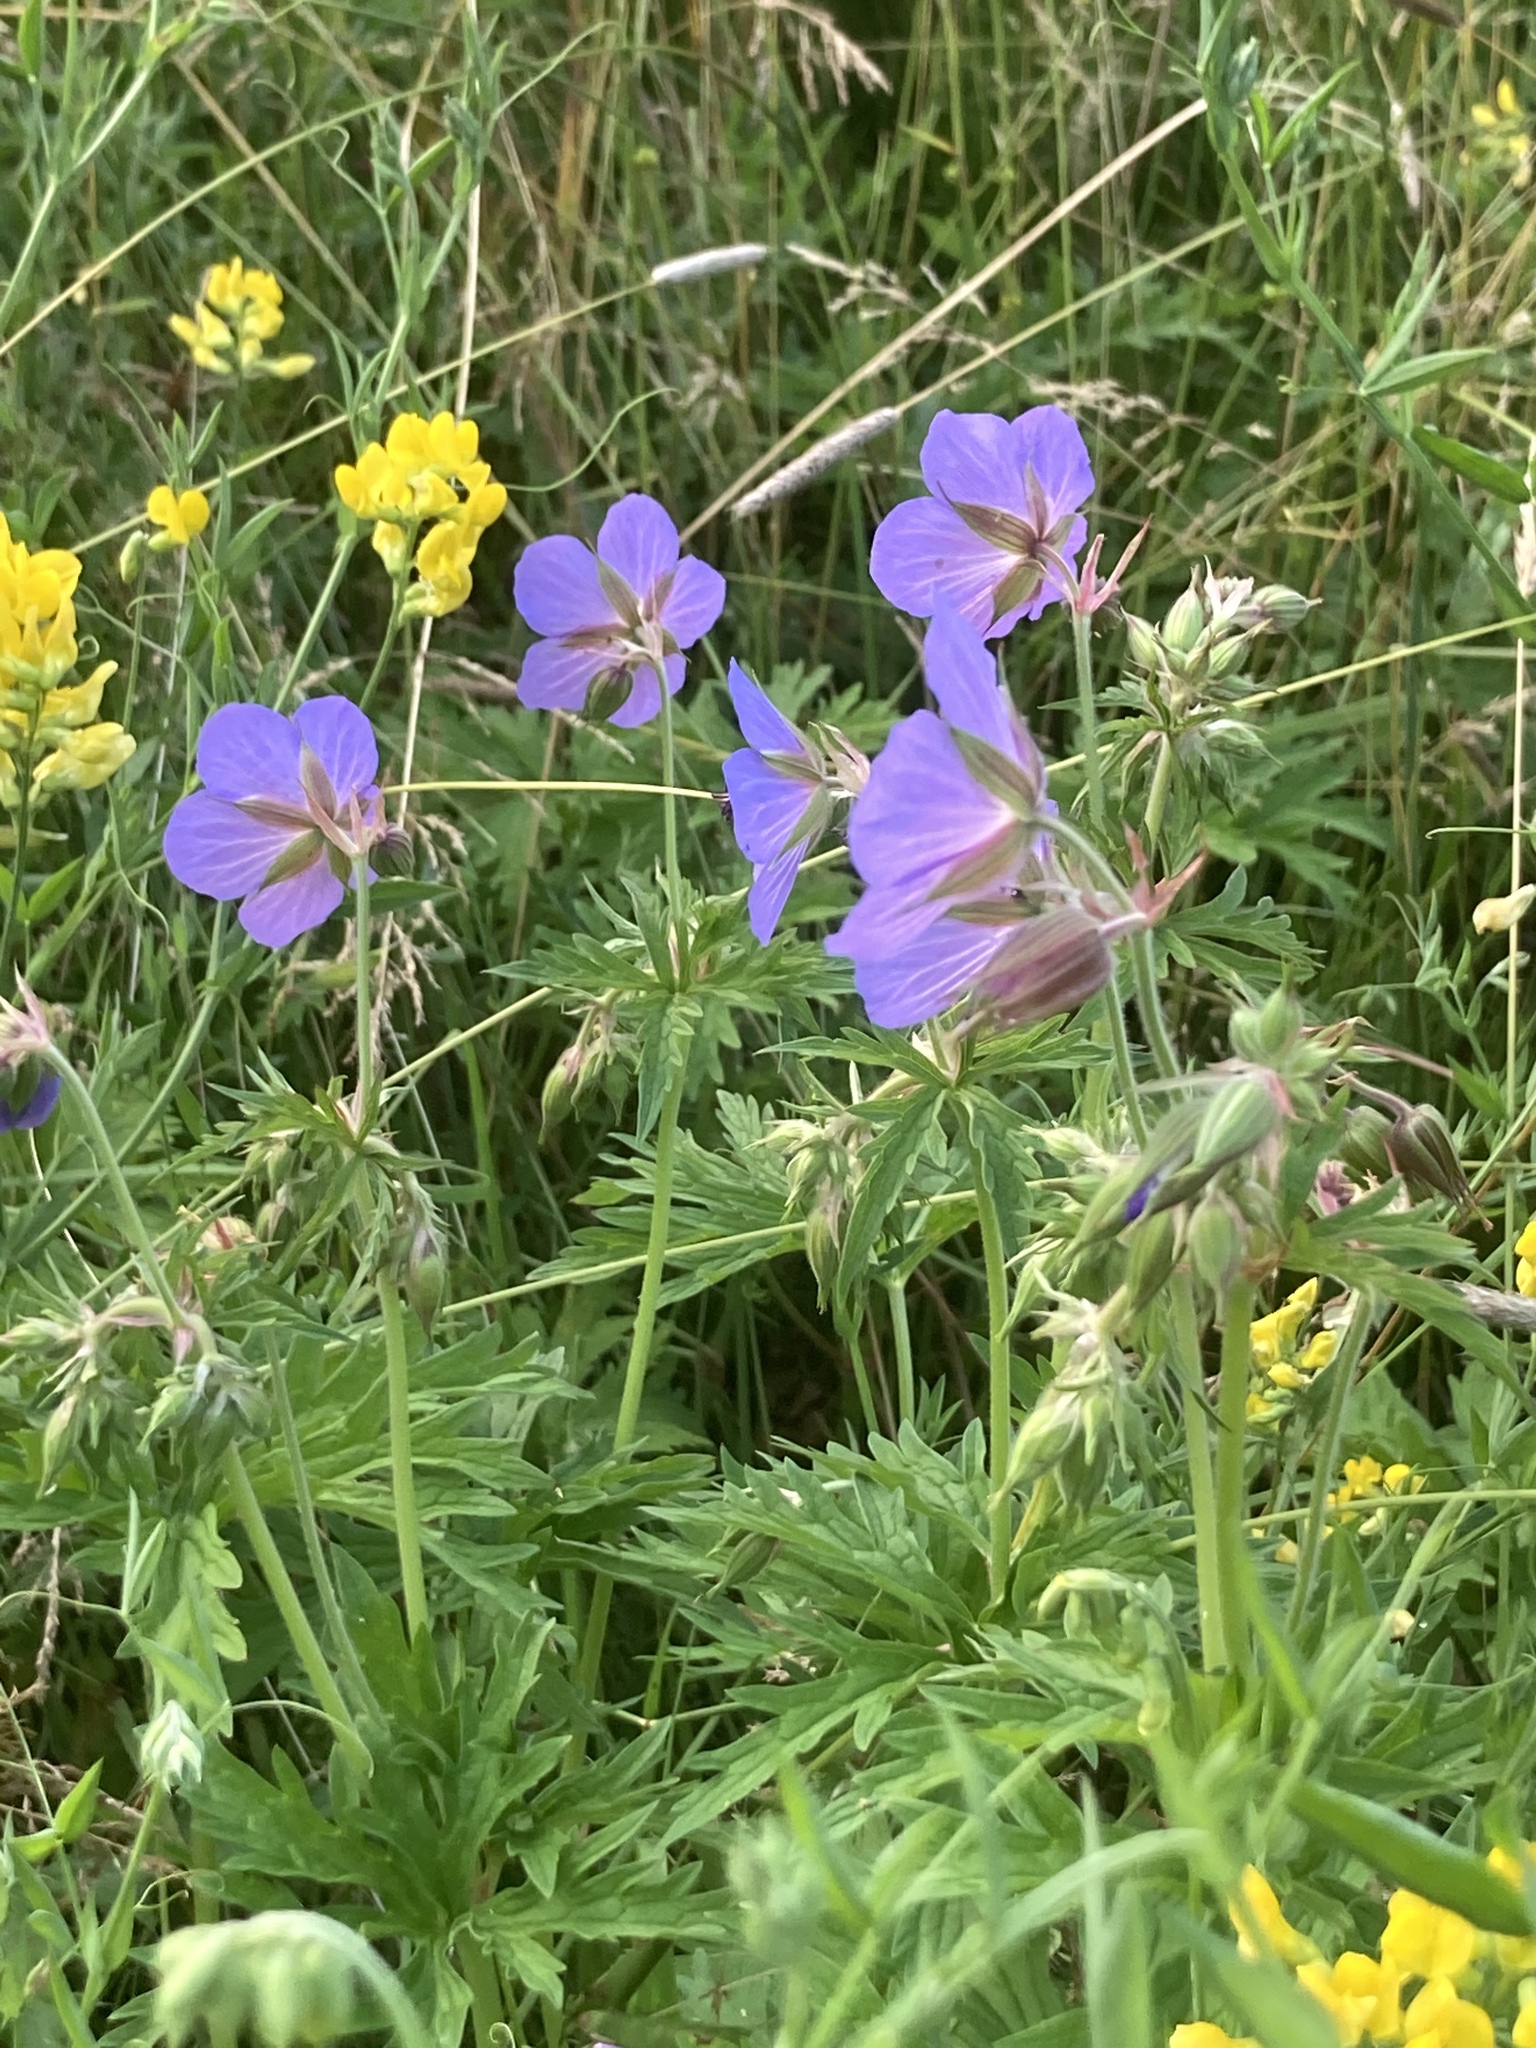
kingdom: Plantae
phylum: Tracheophyta
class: Magnoliopsida
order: Geraniales
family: Geraniaceae
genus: Geranium
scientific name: Geranium pratense
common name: Meadow crane's-bill
